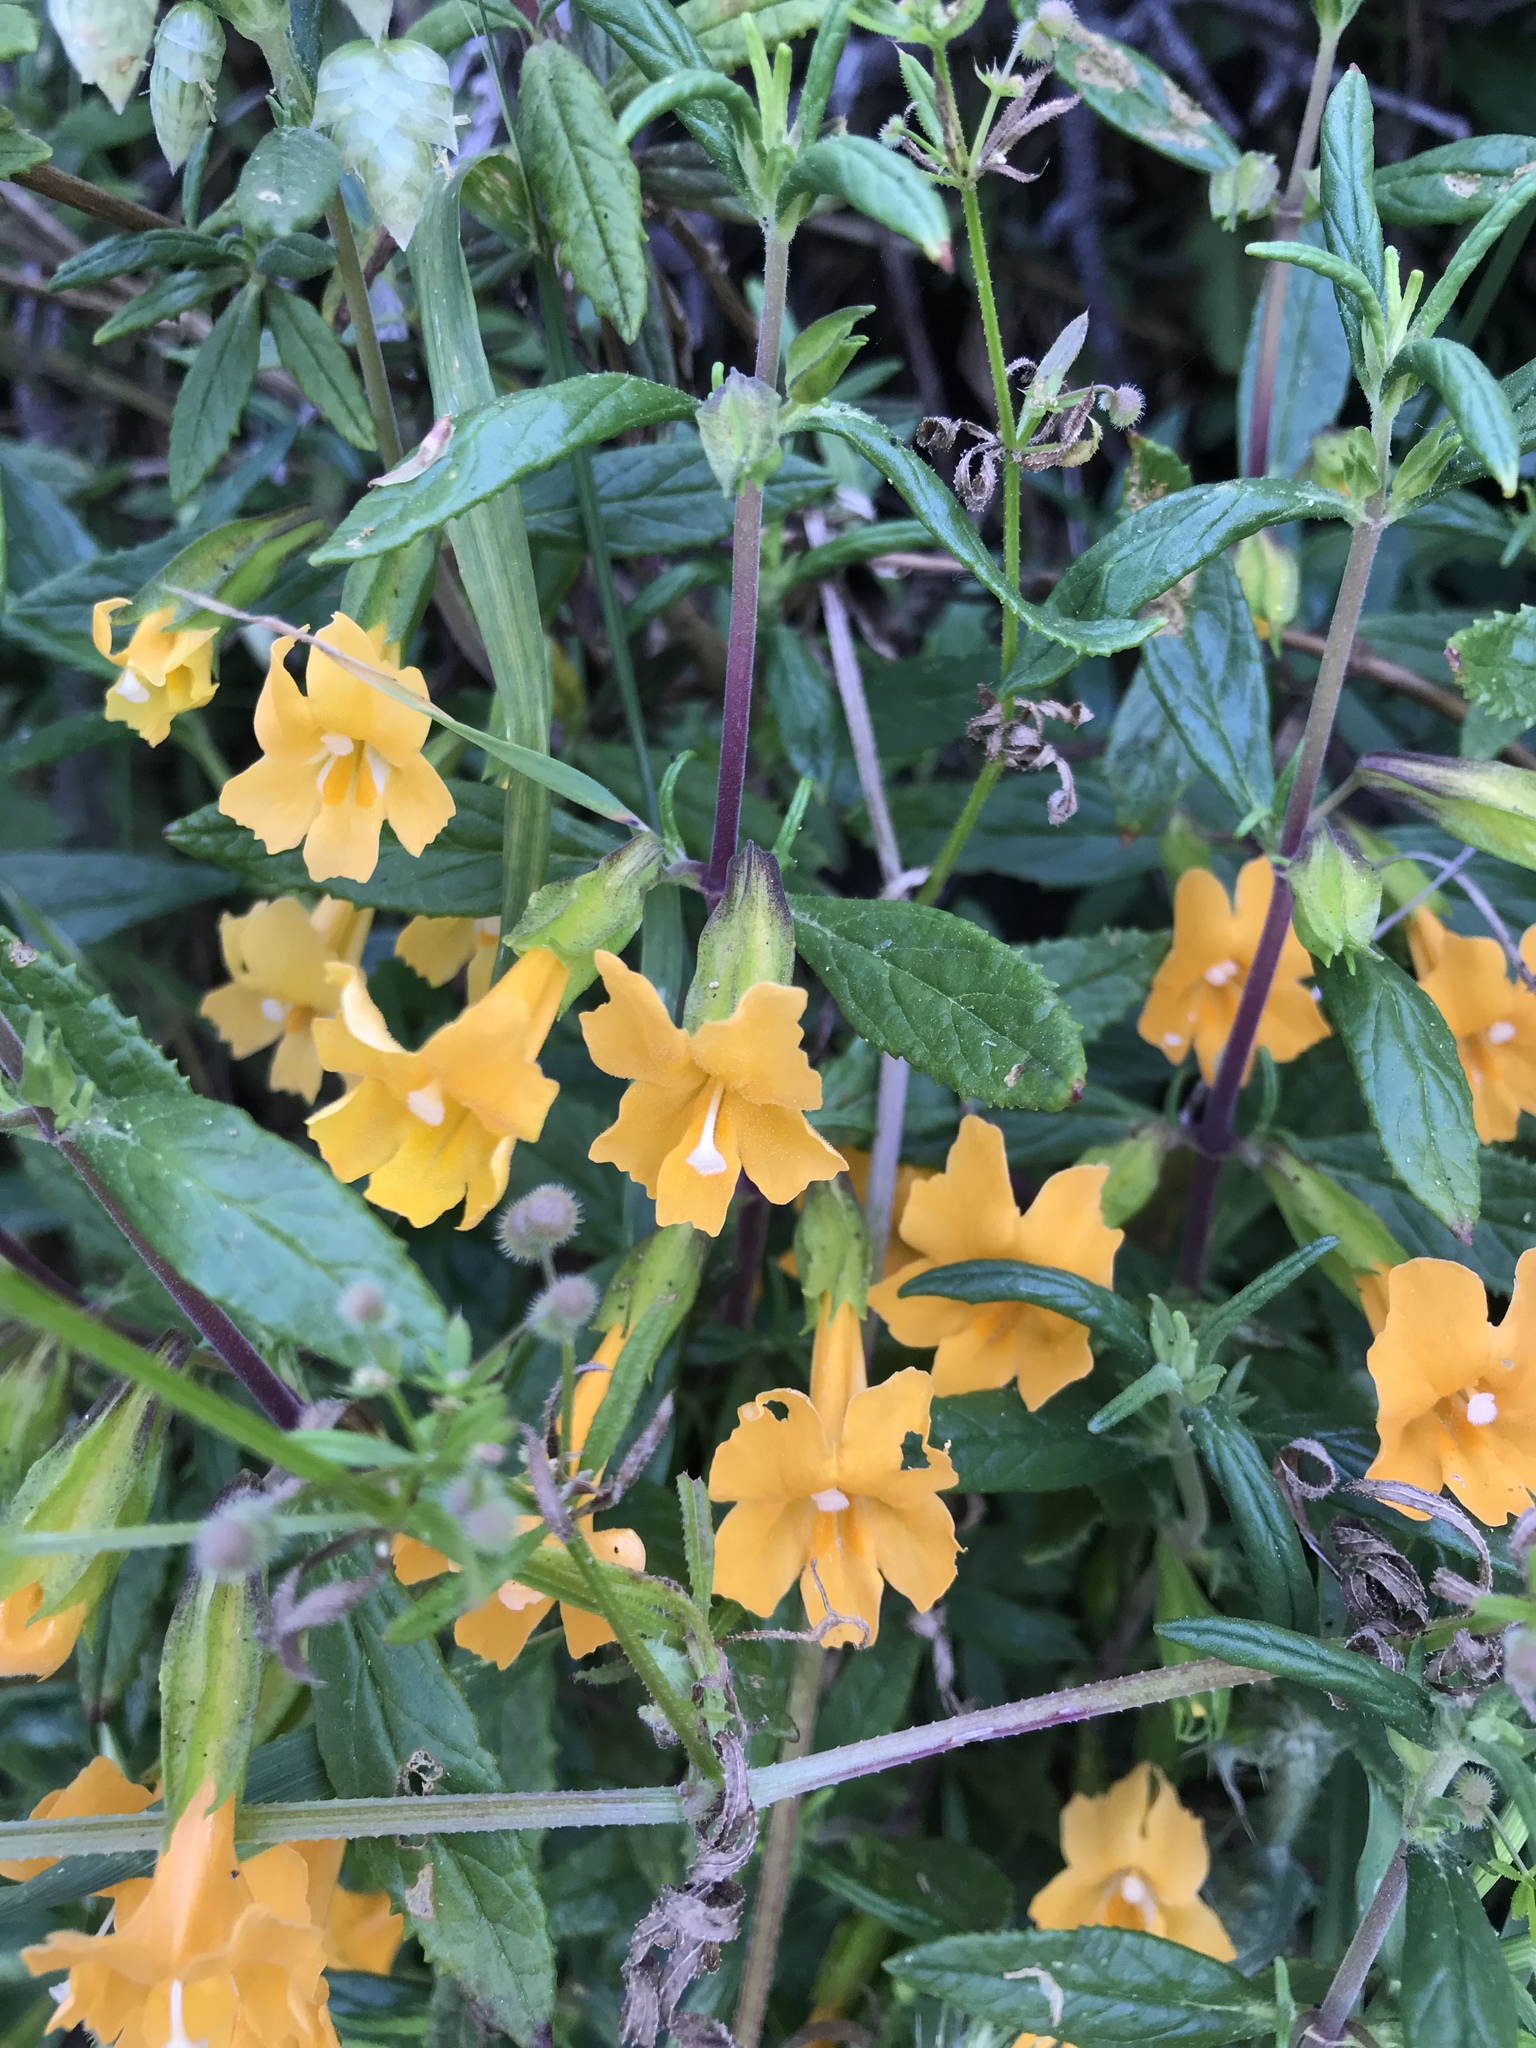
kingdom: Plantae
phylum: Tracheophyta
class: Magnoliopsida
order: Lamiales
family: Phrymaceae
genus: Diplacus
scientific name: Diplacus aurantiacus
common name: Bush monkey-flower
